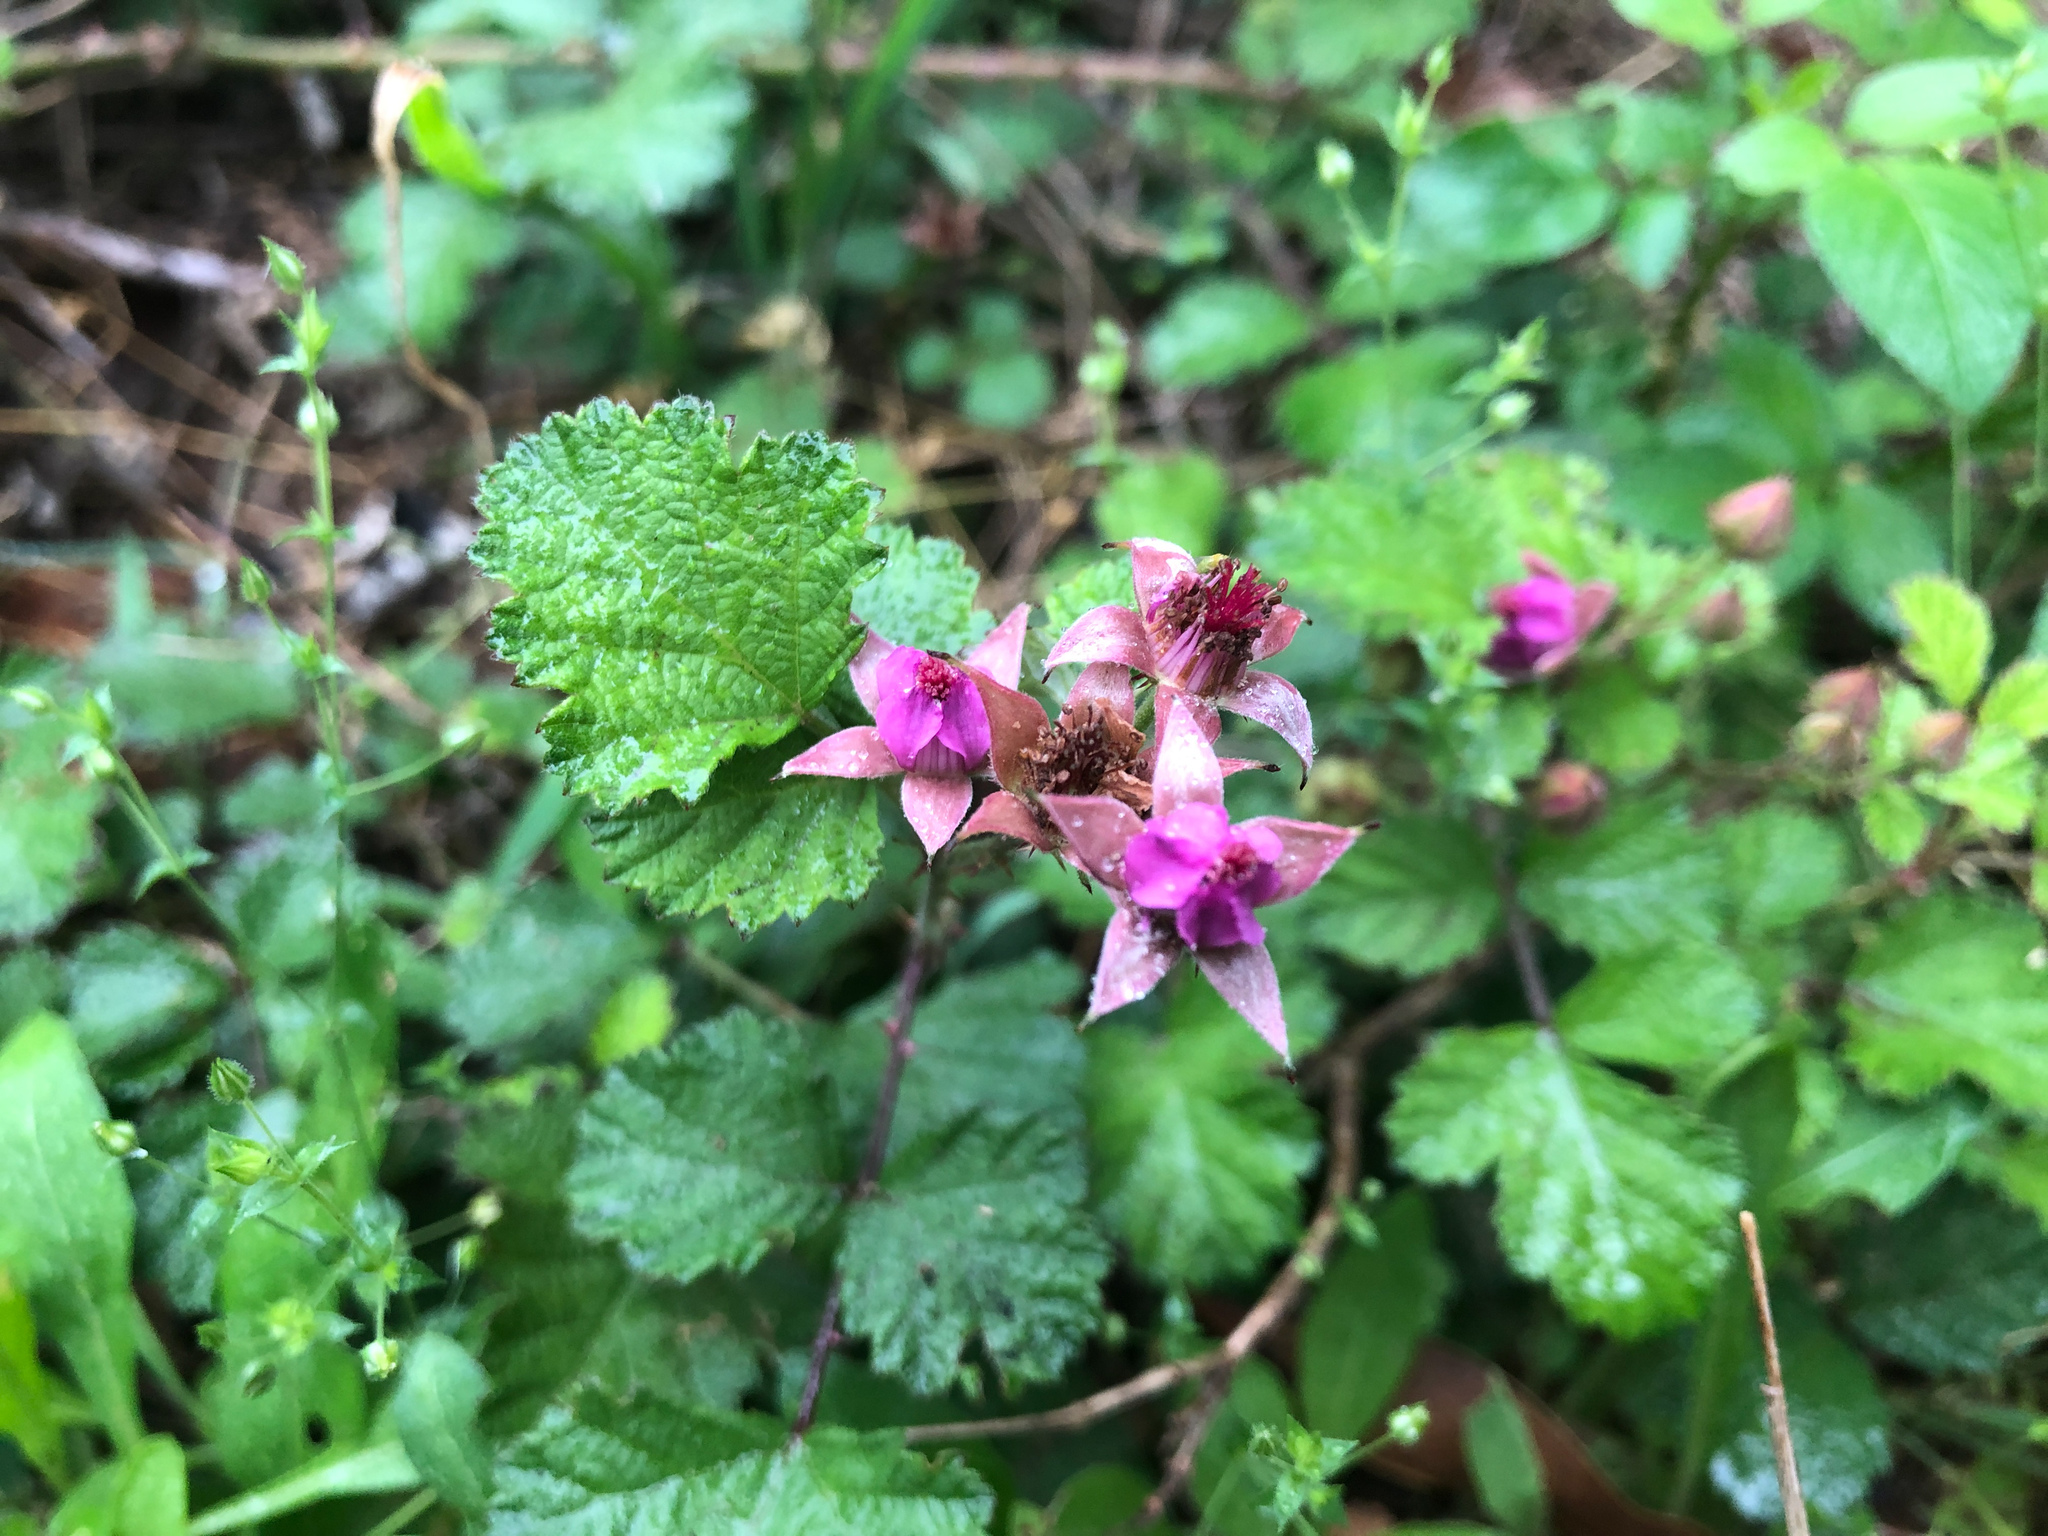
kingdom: Plantae
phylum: Tracheophyta
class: Magnoliopsida
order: Rosales
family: Rosaceae
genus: Rubus
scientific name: Rubus parvifolius
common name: Threeleaf blackberry
